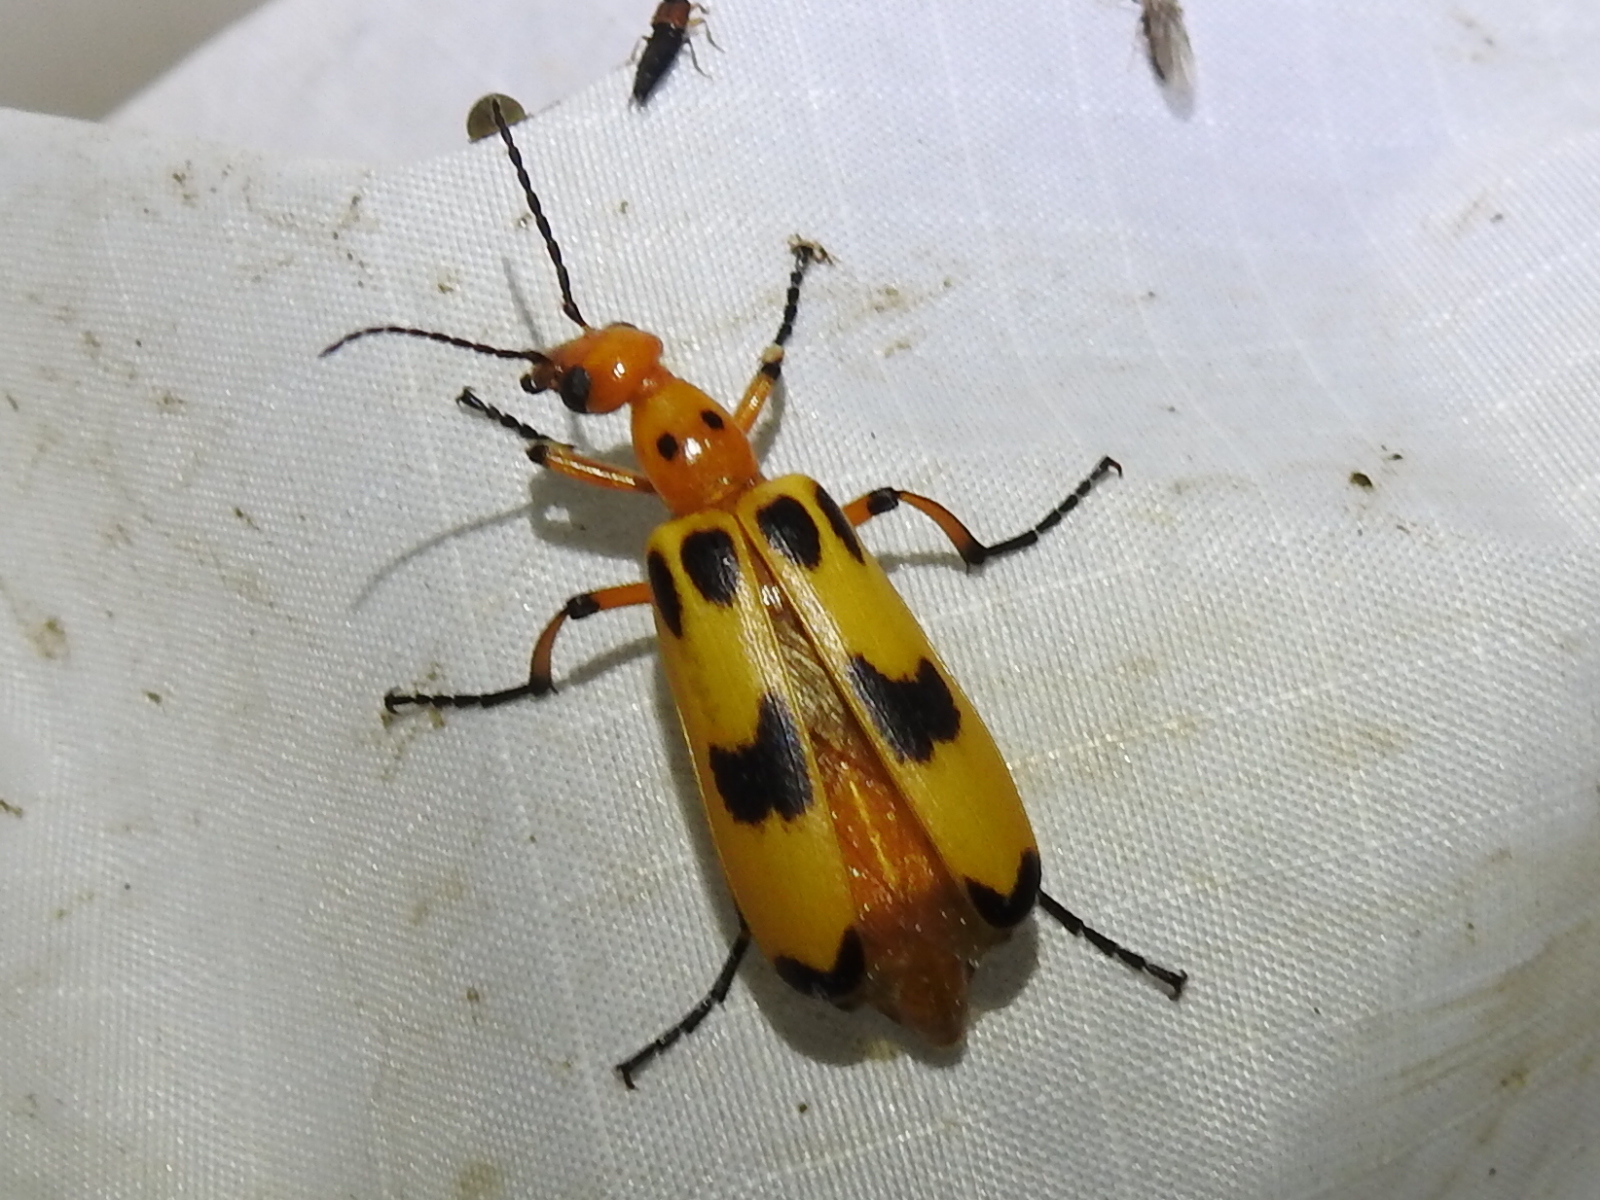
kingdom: Animalia
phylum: Arthropoda
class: Insecta
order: Coleoptera
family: Meloidae
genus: Pyrota
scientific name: Pyrota fasciata
